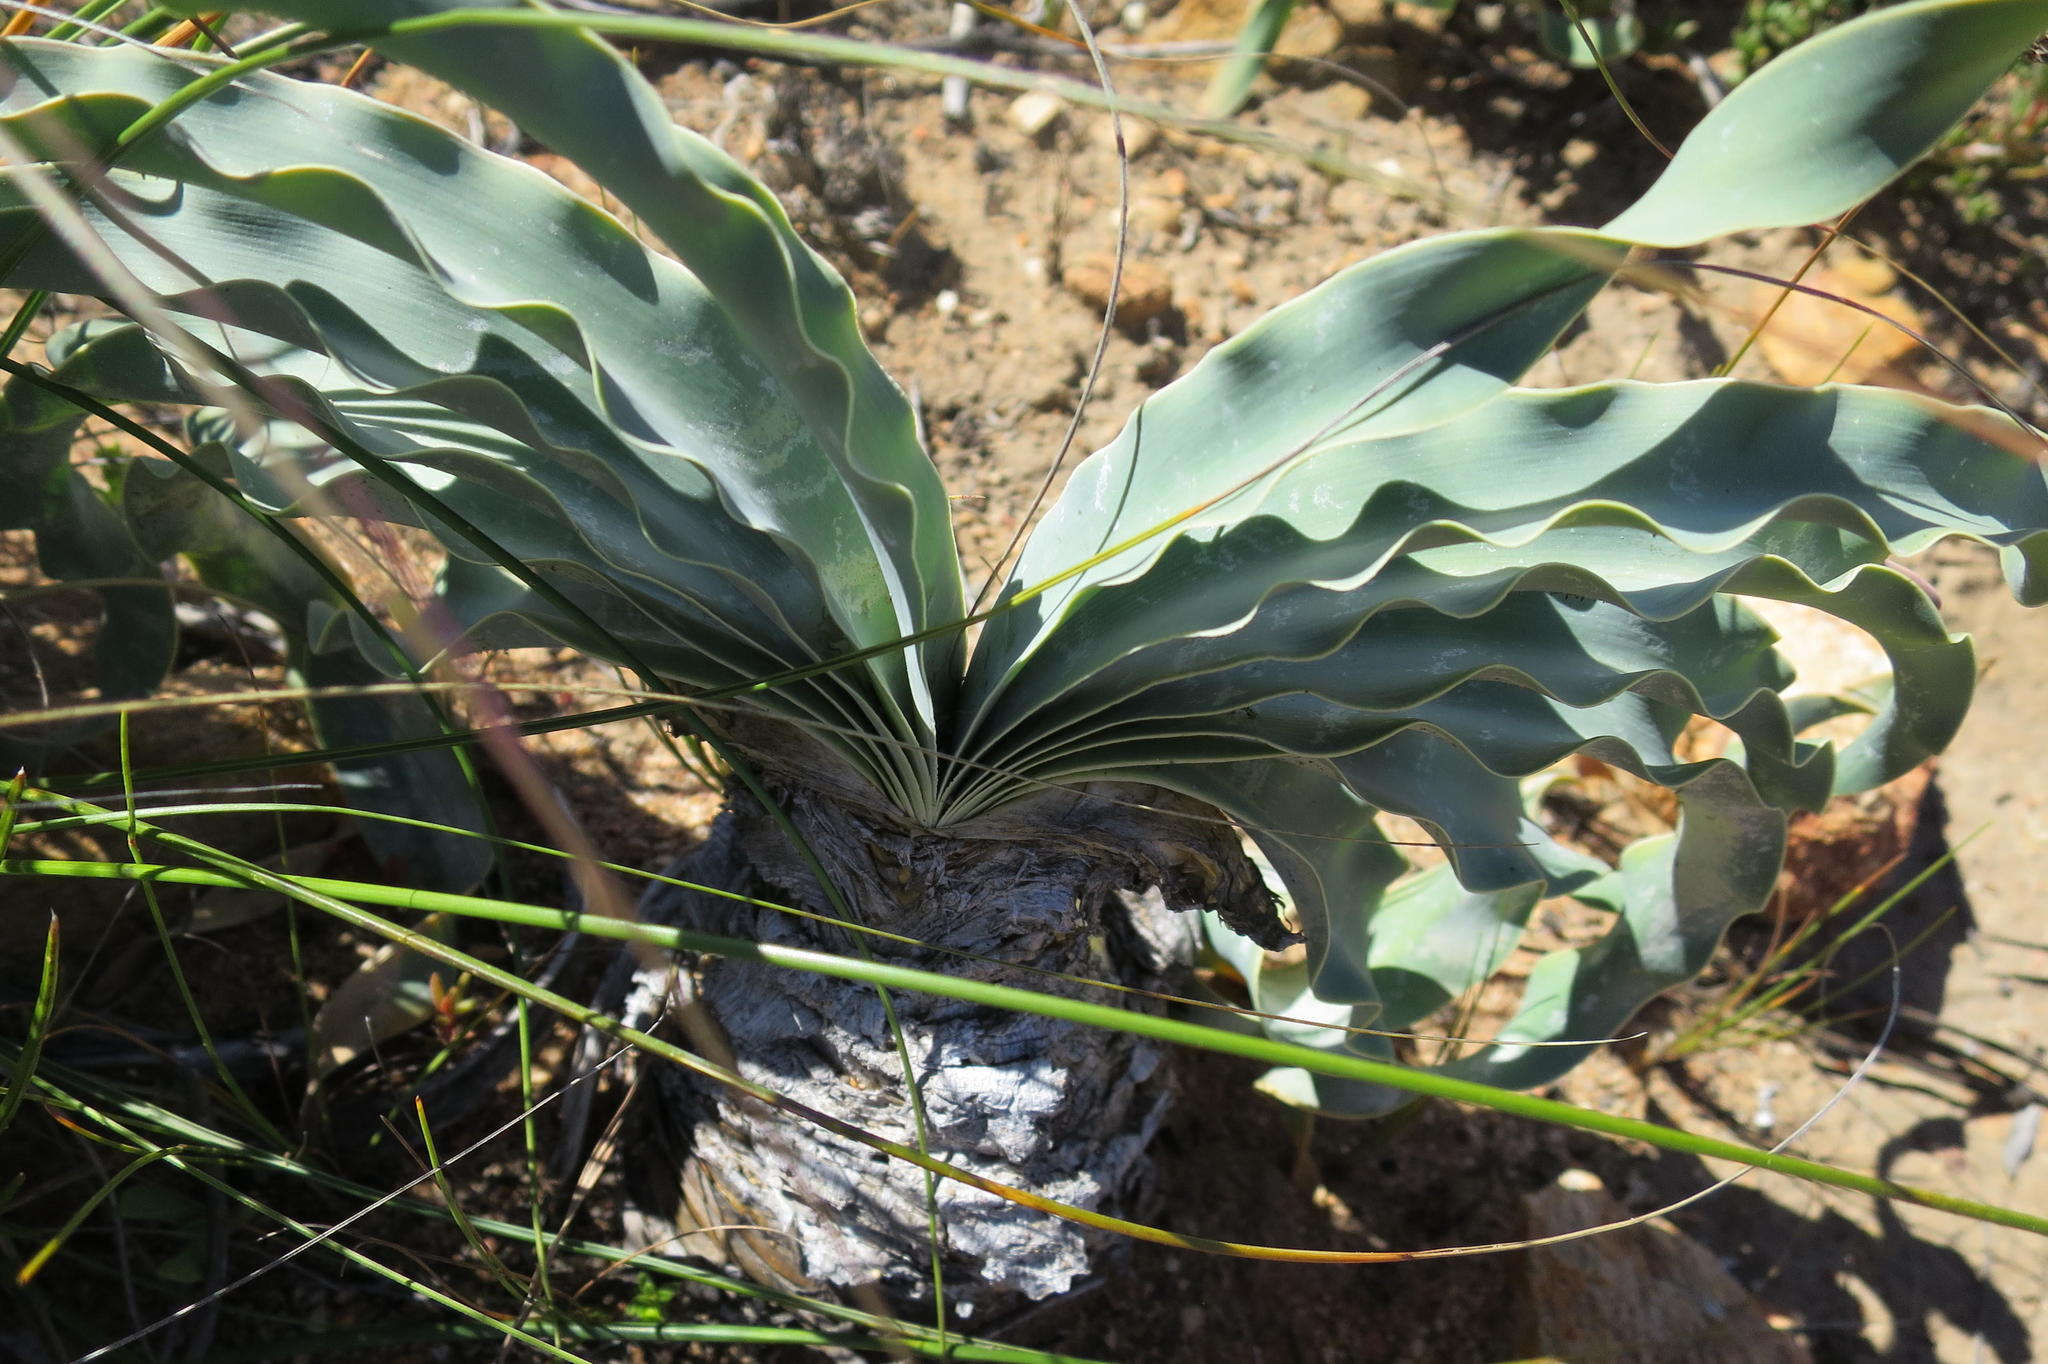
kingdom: Plantae
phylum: Tracheophyta
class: Liliopsida
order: Asparagales
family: Amaryllidaceae
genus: Boophone
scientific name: Boophone disticha
